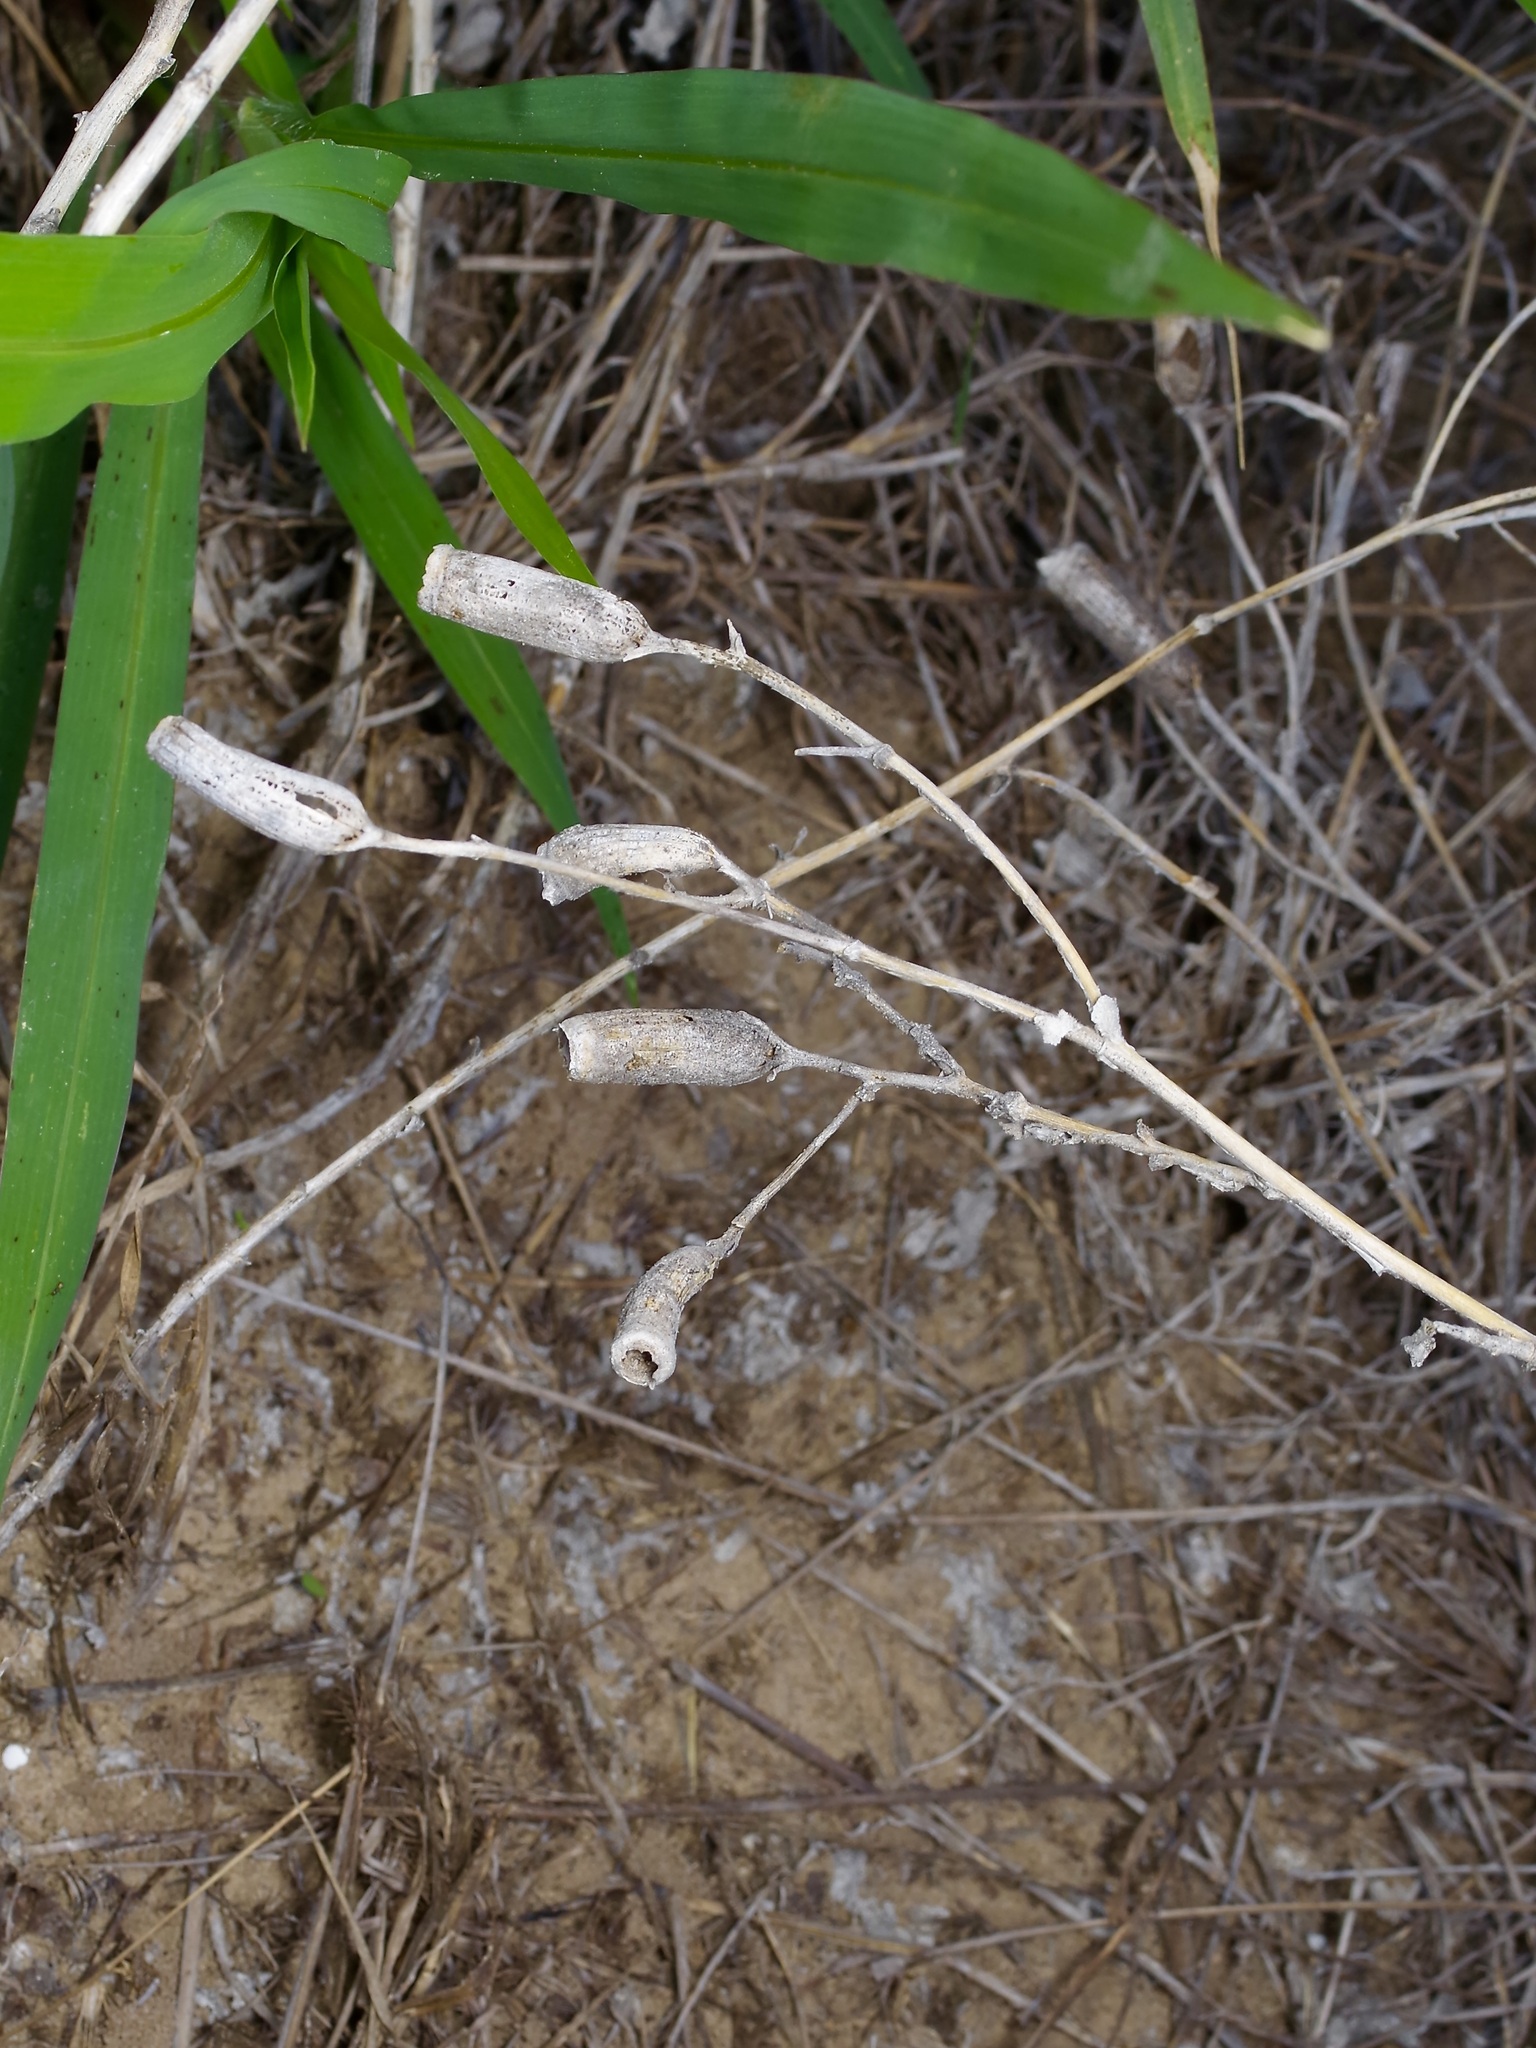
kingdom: Plantae
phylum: Tracheophyta
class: Magnoliopsida
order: Cornales
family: Loasaceae
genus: Mentzelia
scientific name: Mentzelia nuda
